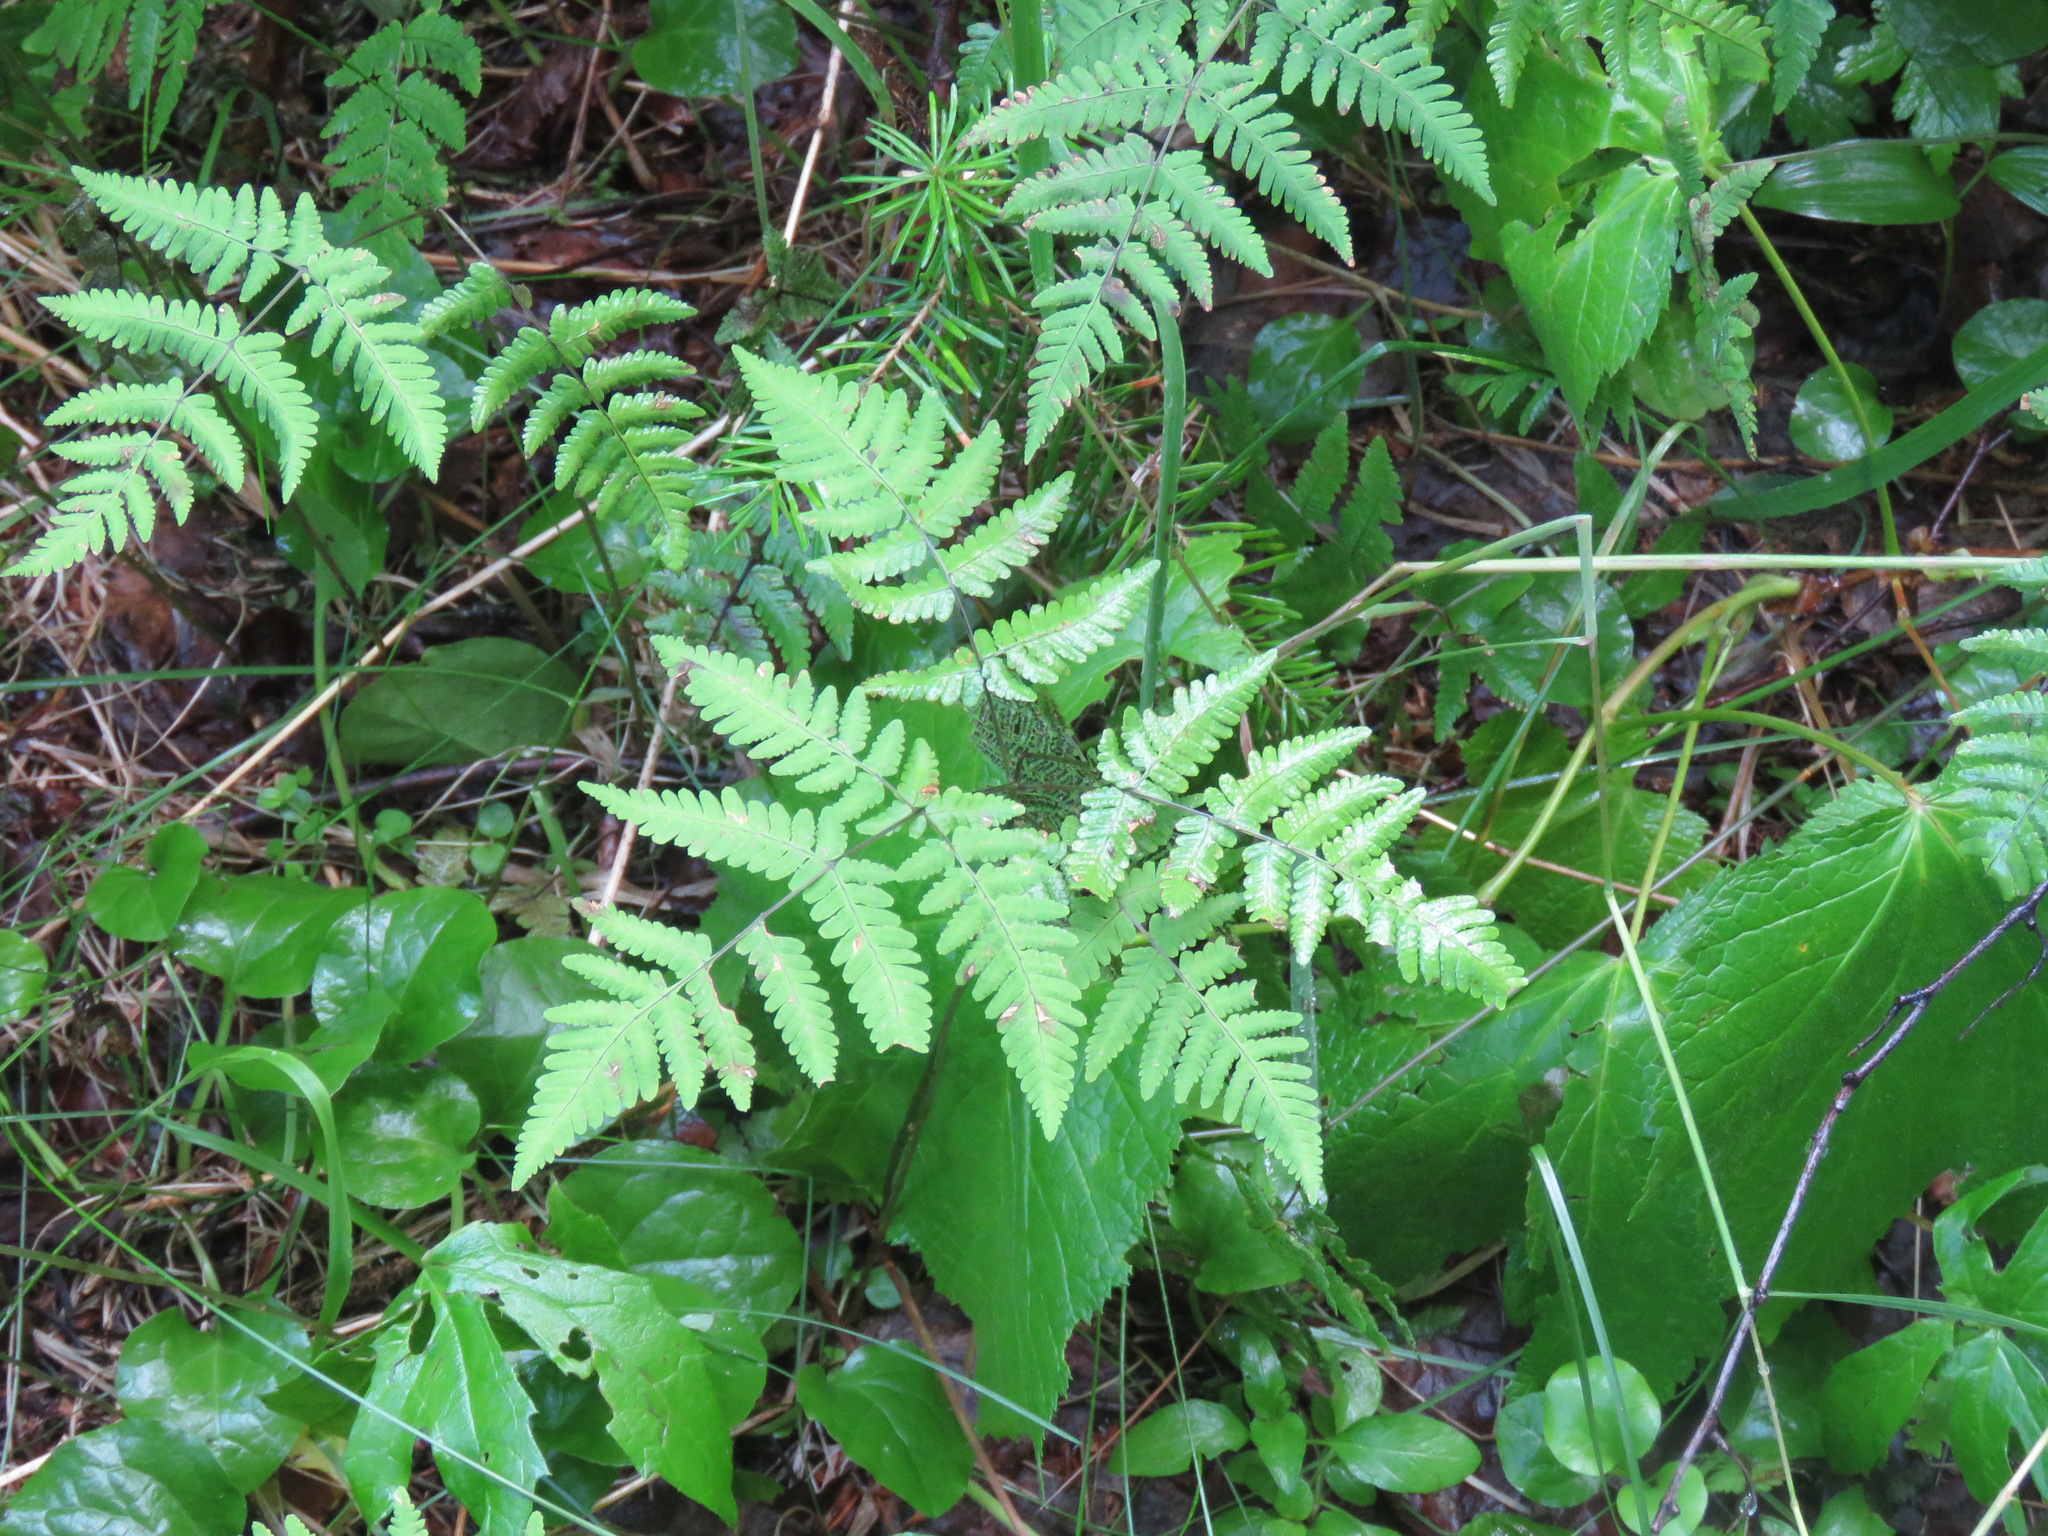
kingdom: Plantae
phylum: Tracheophyta
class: Polypodiopsida
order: Polypodiales
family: Cystopteridaceae
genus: Gymnocarpium
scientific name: Gymnocarpium dryopteris
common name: Oak fern
